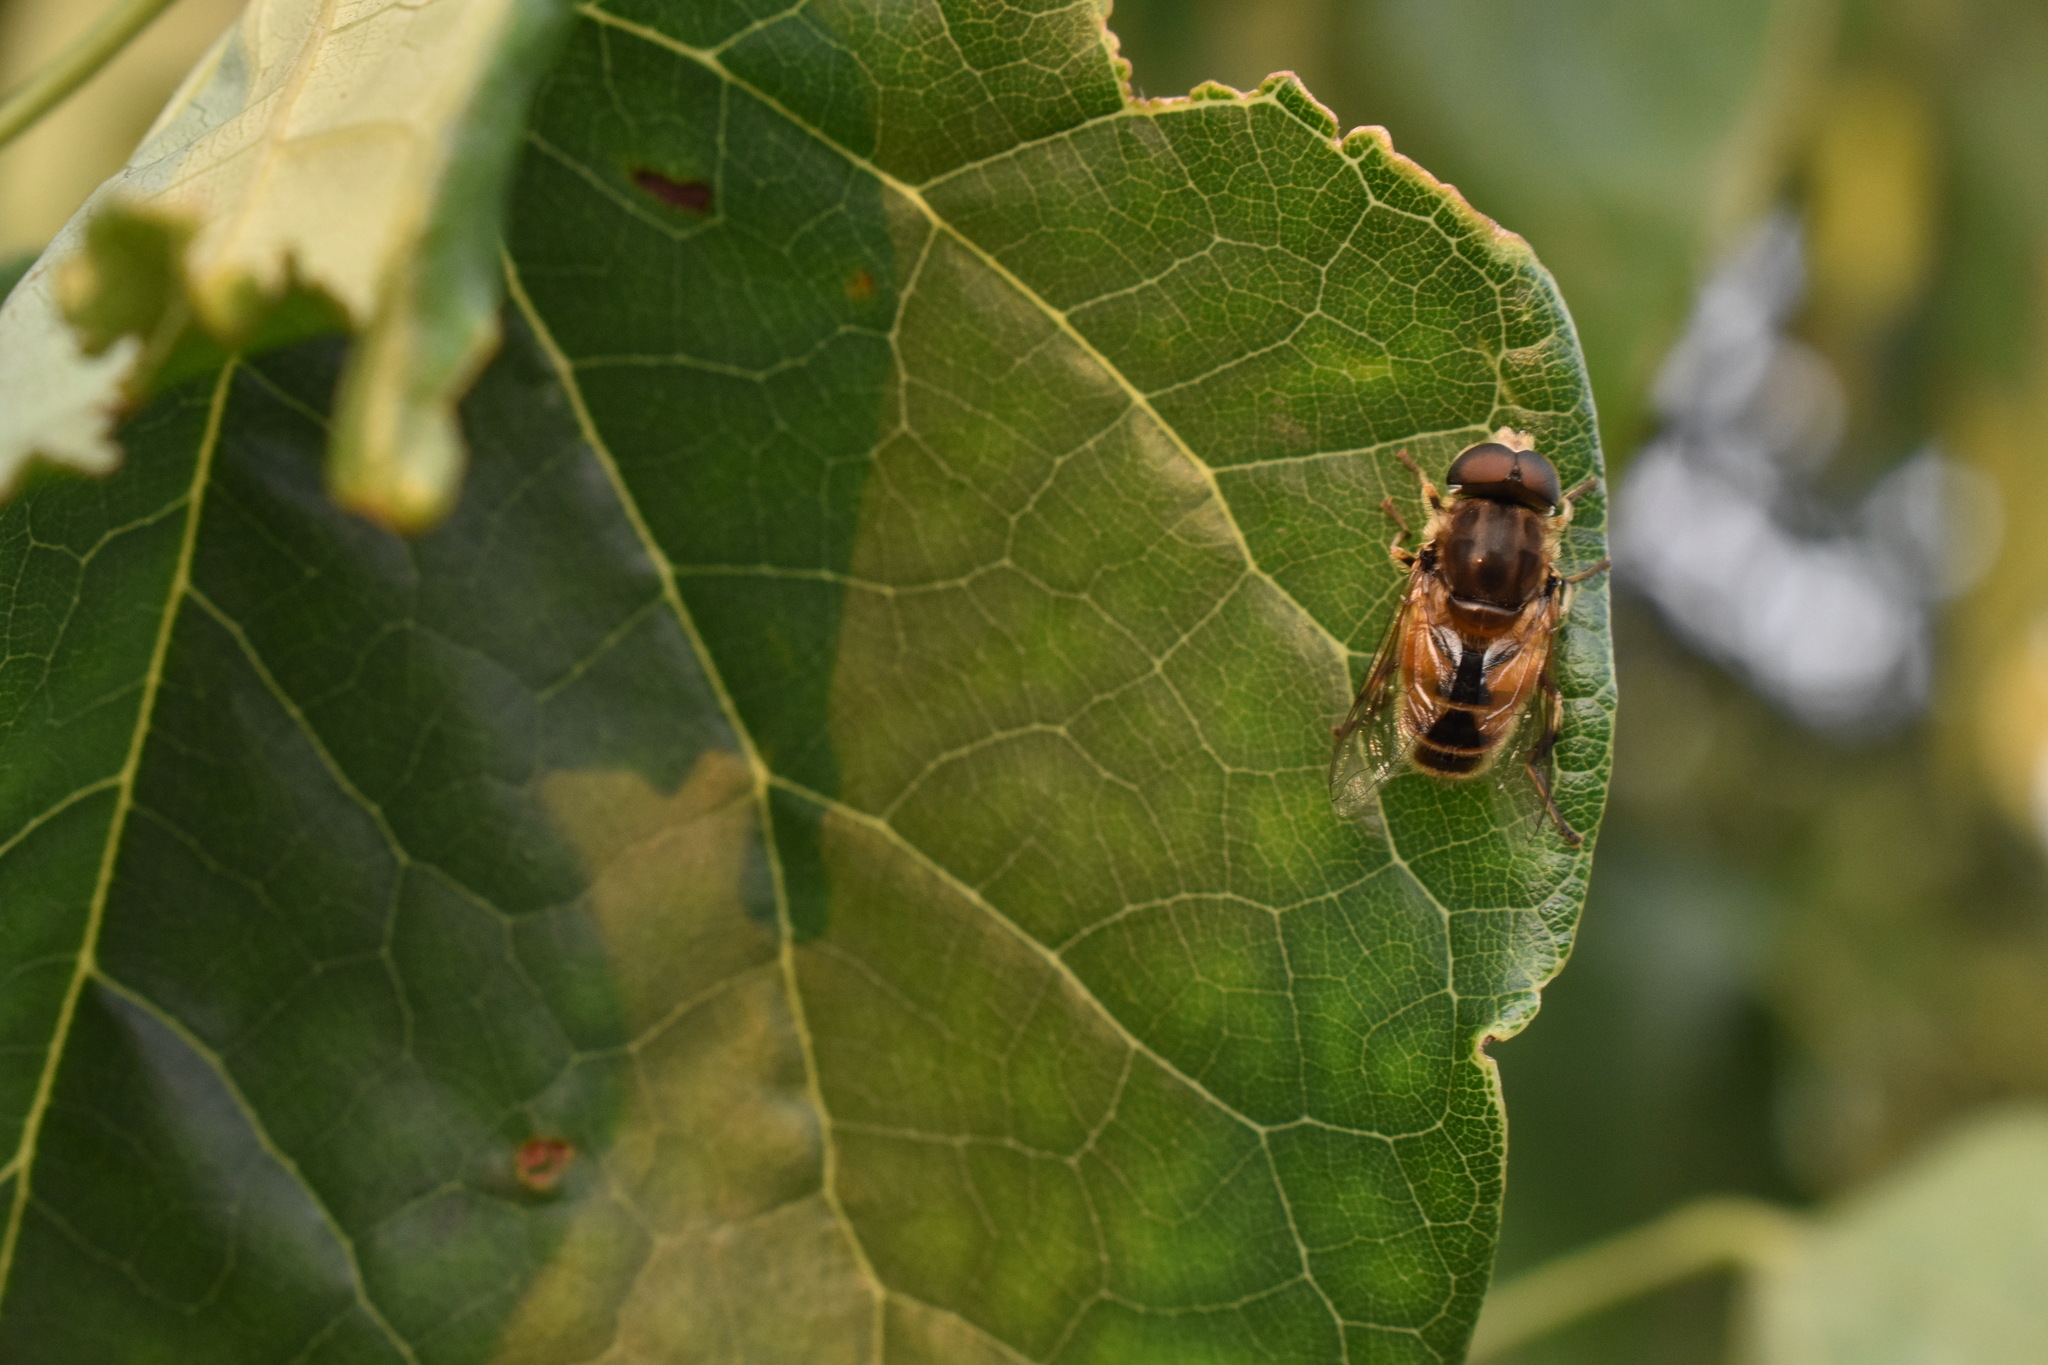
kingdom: Animalia
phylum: Arthropoda
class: Insecta
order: Diptera
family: Syrphidae
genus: Eristalis
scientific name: Eristalis arbustorum
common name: Hover fly
